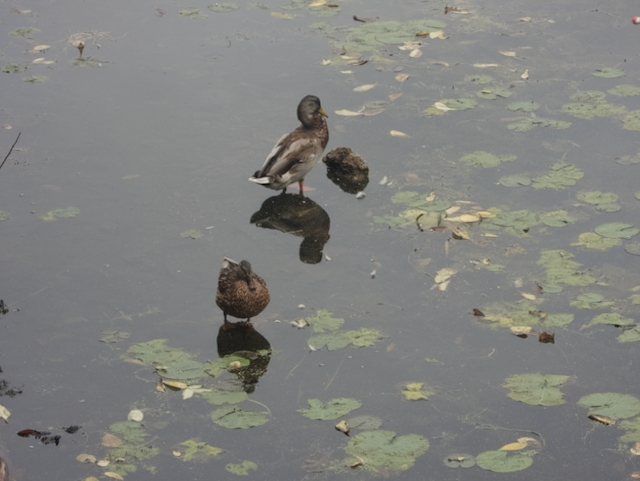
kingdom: Animalia
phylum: Chordata
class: Aves
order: Anseriformes
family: Anatidae
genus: Anas
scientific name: Anas platyrhynchos
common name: Mallard
